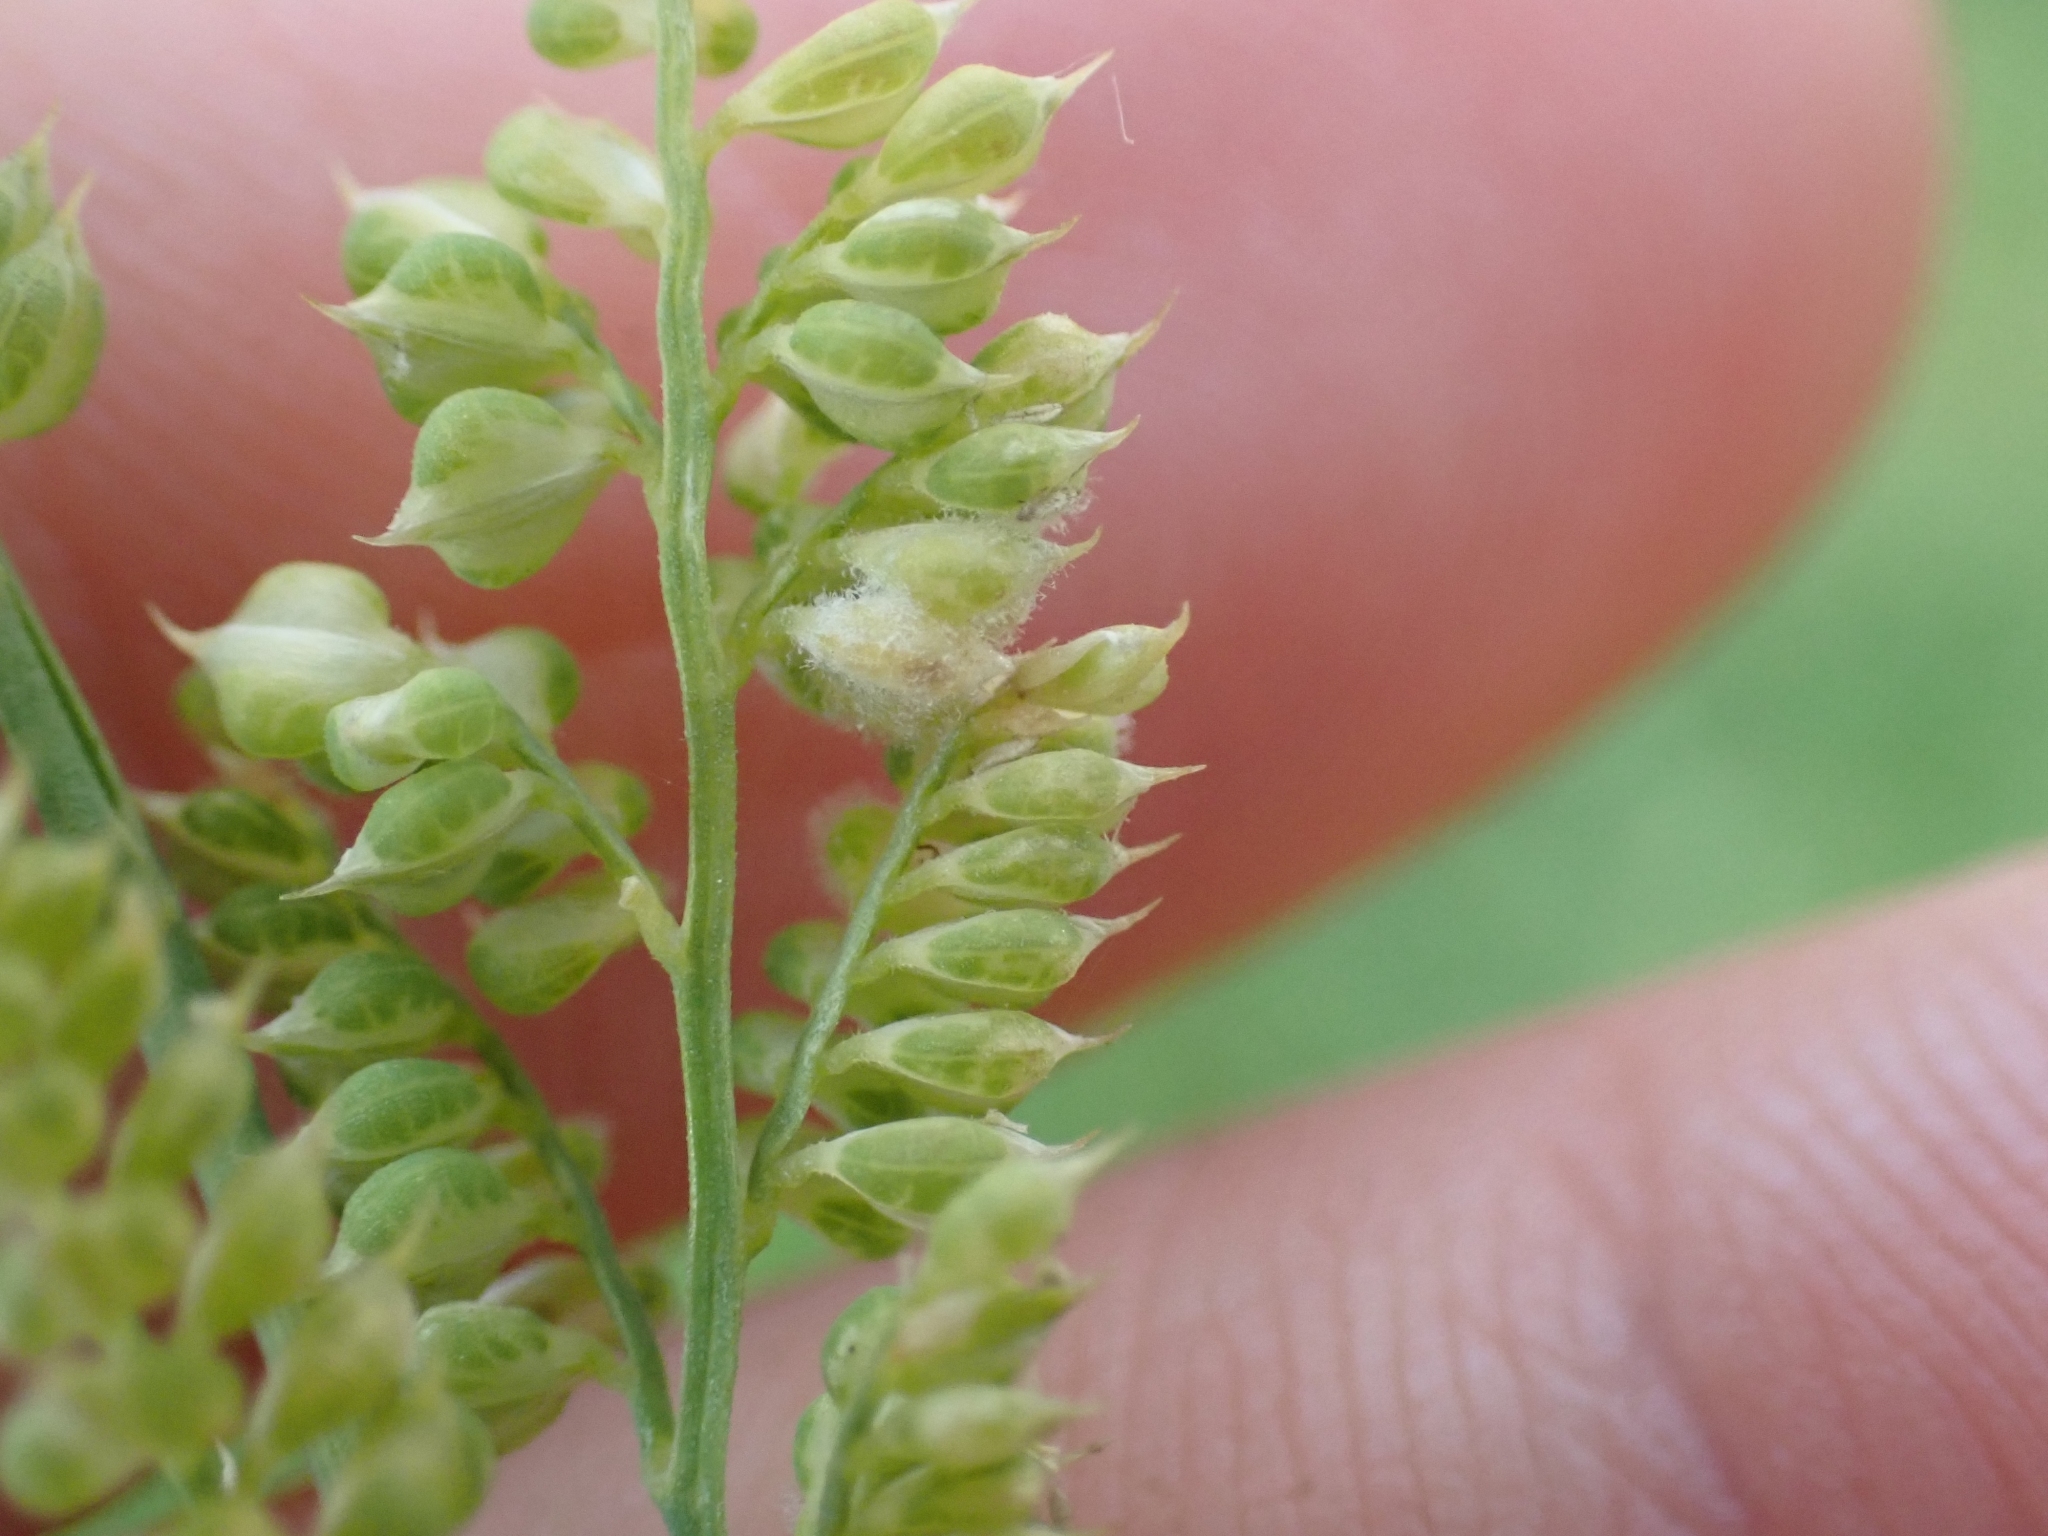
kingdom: Plantae
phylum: Tracheophyta
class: Liliopsida
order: Poales
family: Poaceae
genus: Beckmannia
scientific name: Beckmannia syzigachne
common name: American slough-grass
